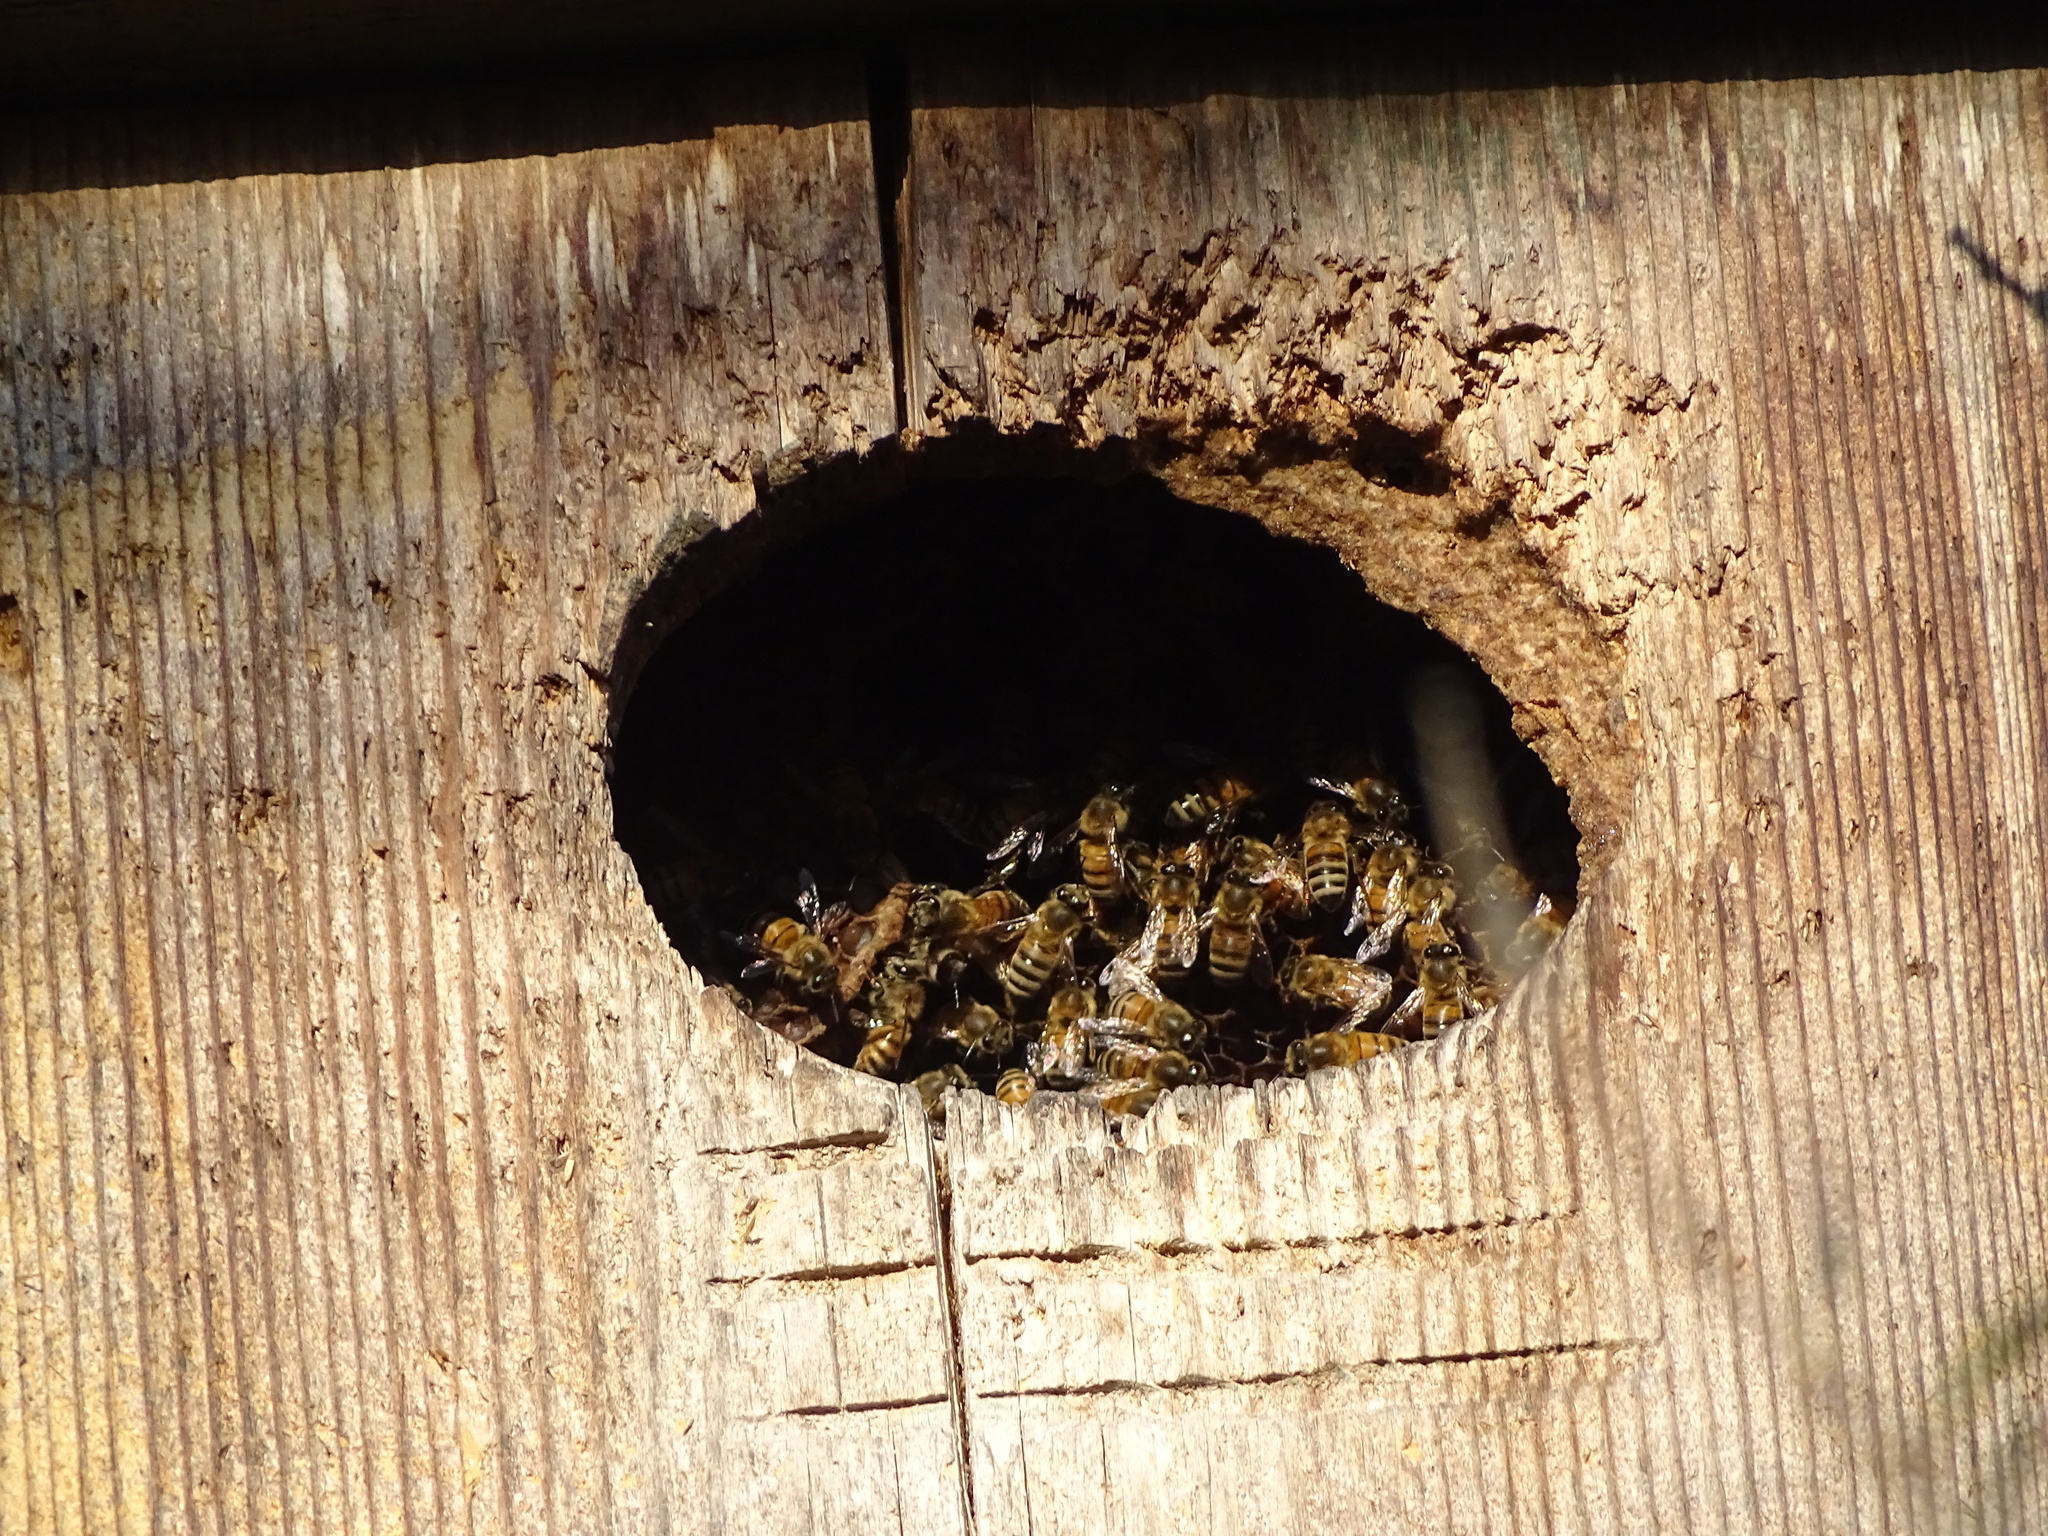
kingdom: Animalia
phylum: Arthropoda
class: Insecta
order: Hymenoptera
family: Apidae
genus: Apis
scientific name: Apis mellifera
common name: Honey bee
